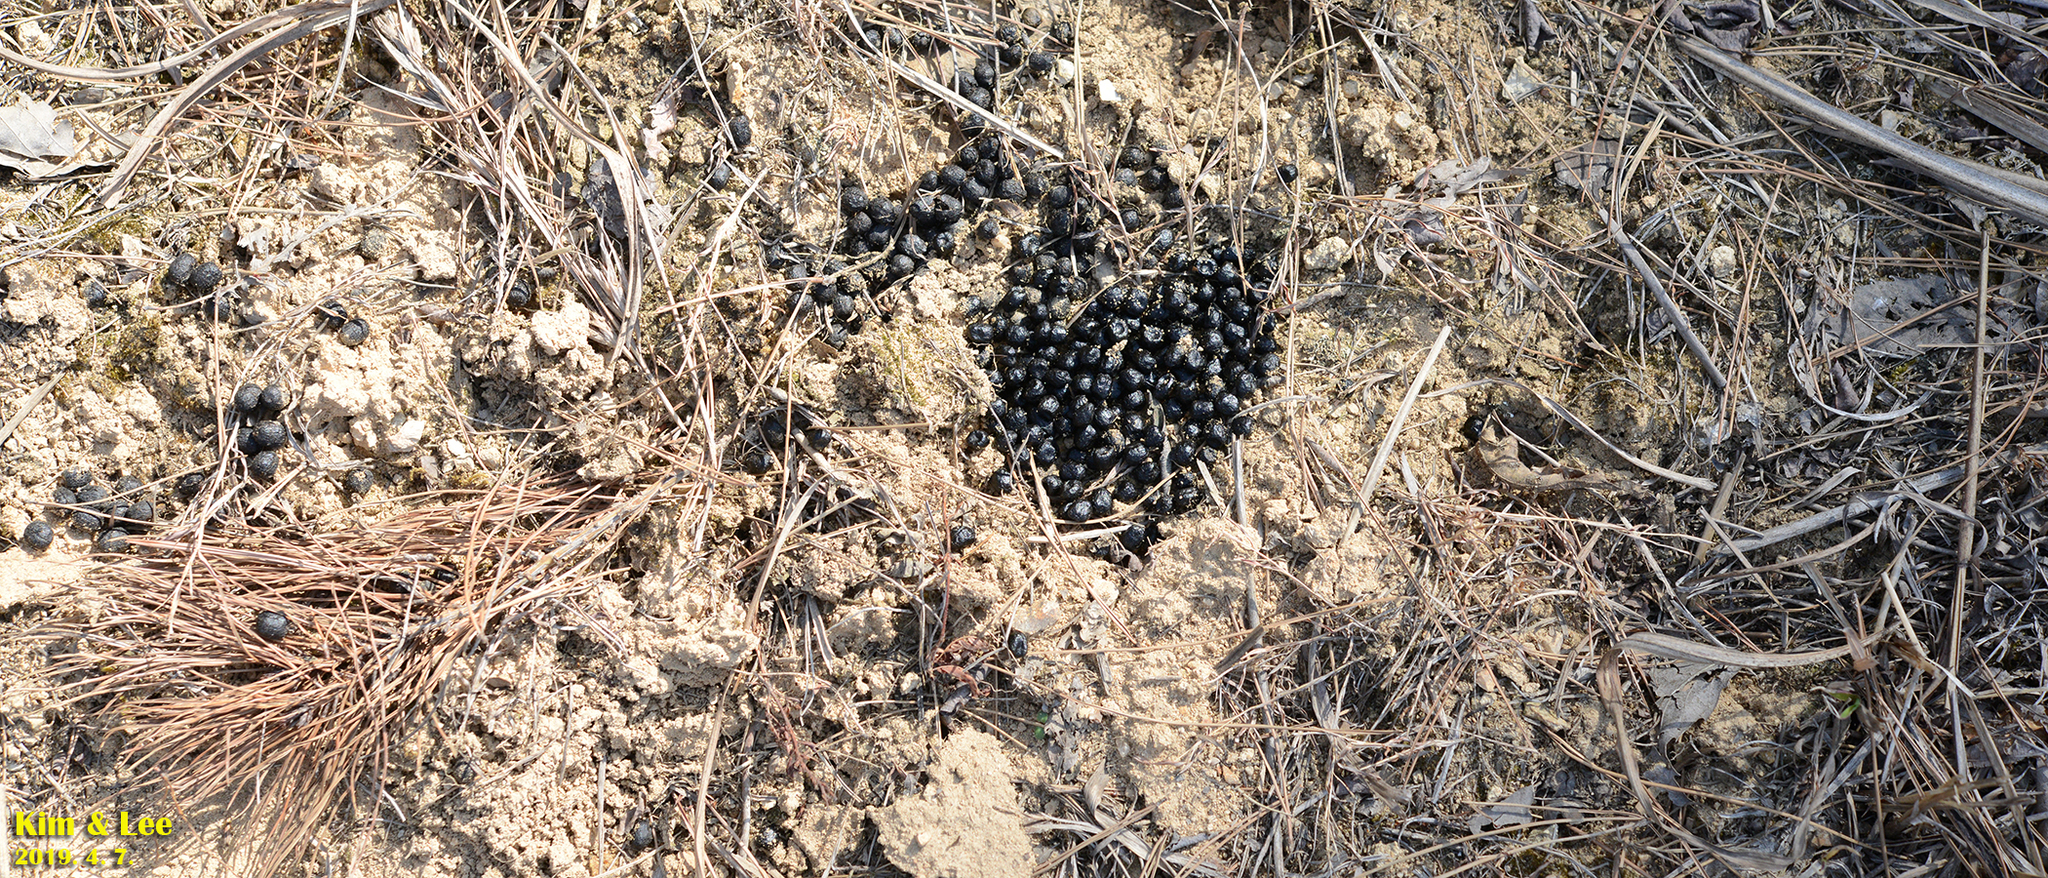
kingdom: Animalia
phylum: Chordata
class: Mammalia
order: Artiodactyla
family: Cervidae
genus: Hydropotes
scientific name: Hydropotes inermis
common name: Chinese water deer
